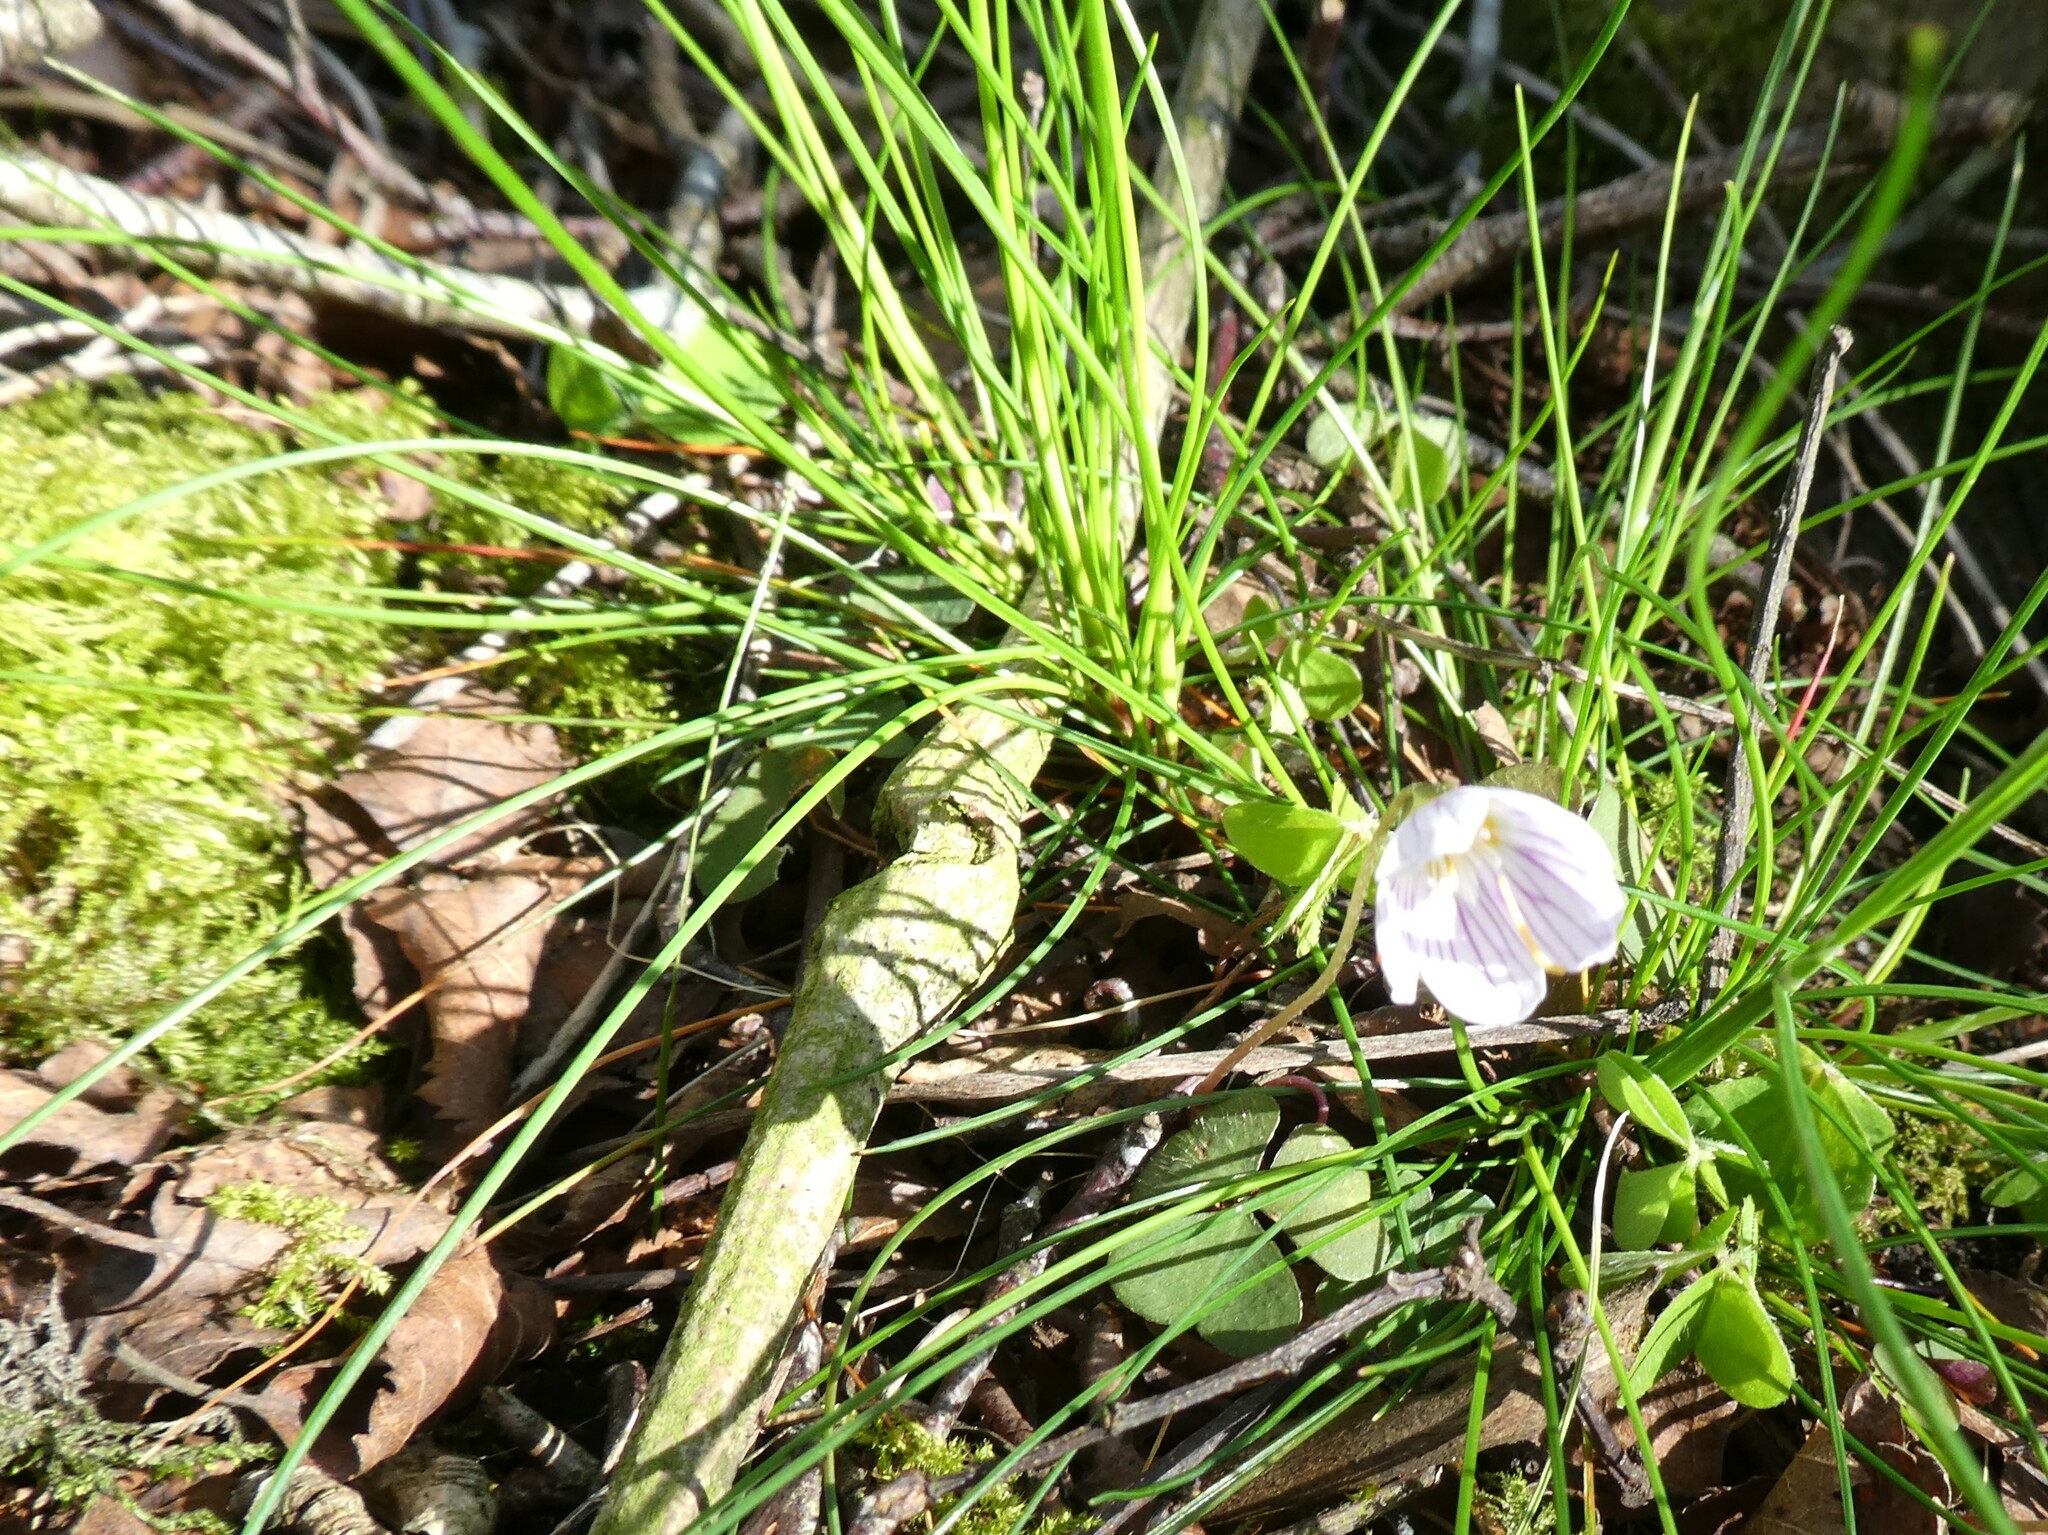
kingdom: Plantae
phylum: Tracheophyta
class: Magnoliopsida
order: Oxalidales
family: Oxalidaceae
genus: Oxalis
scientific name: Oxalis acetosella
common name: Wood-sorrel
